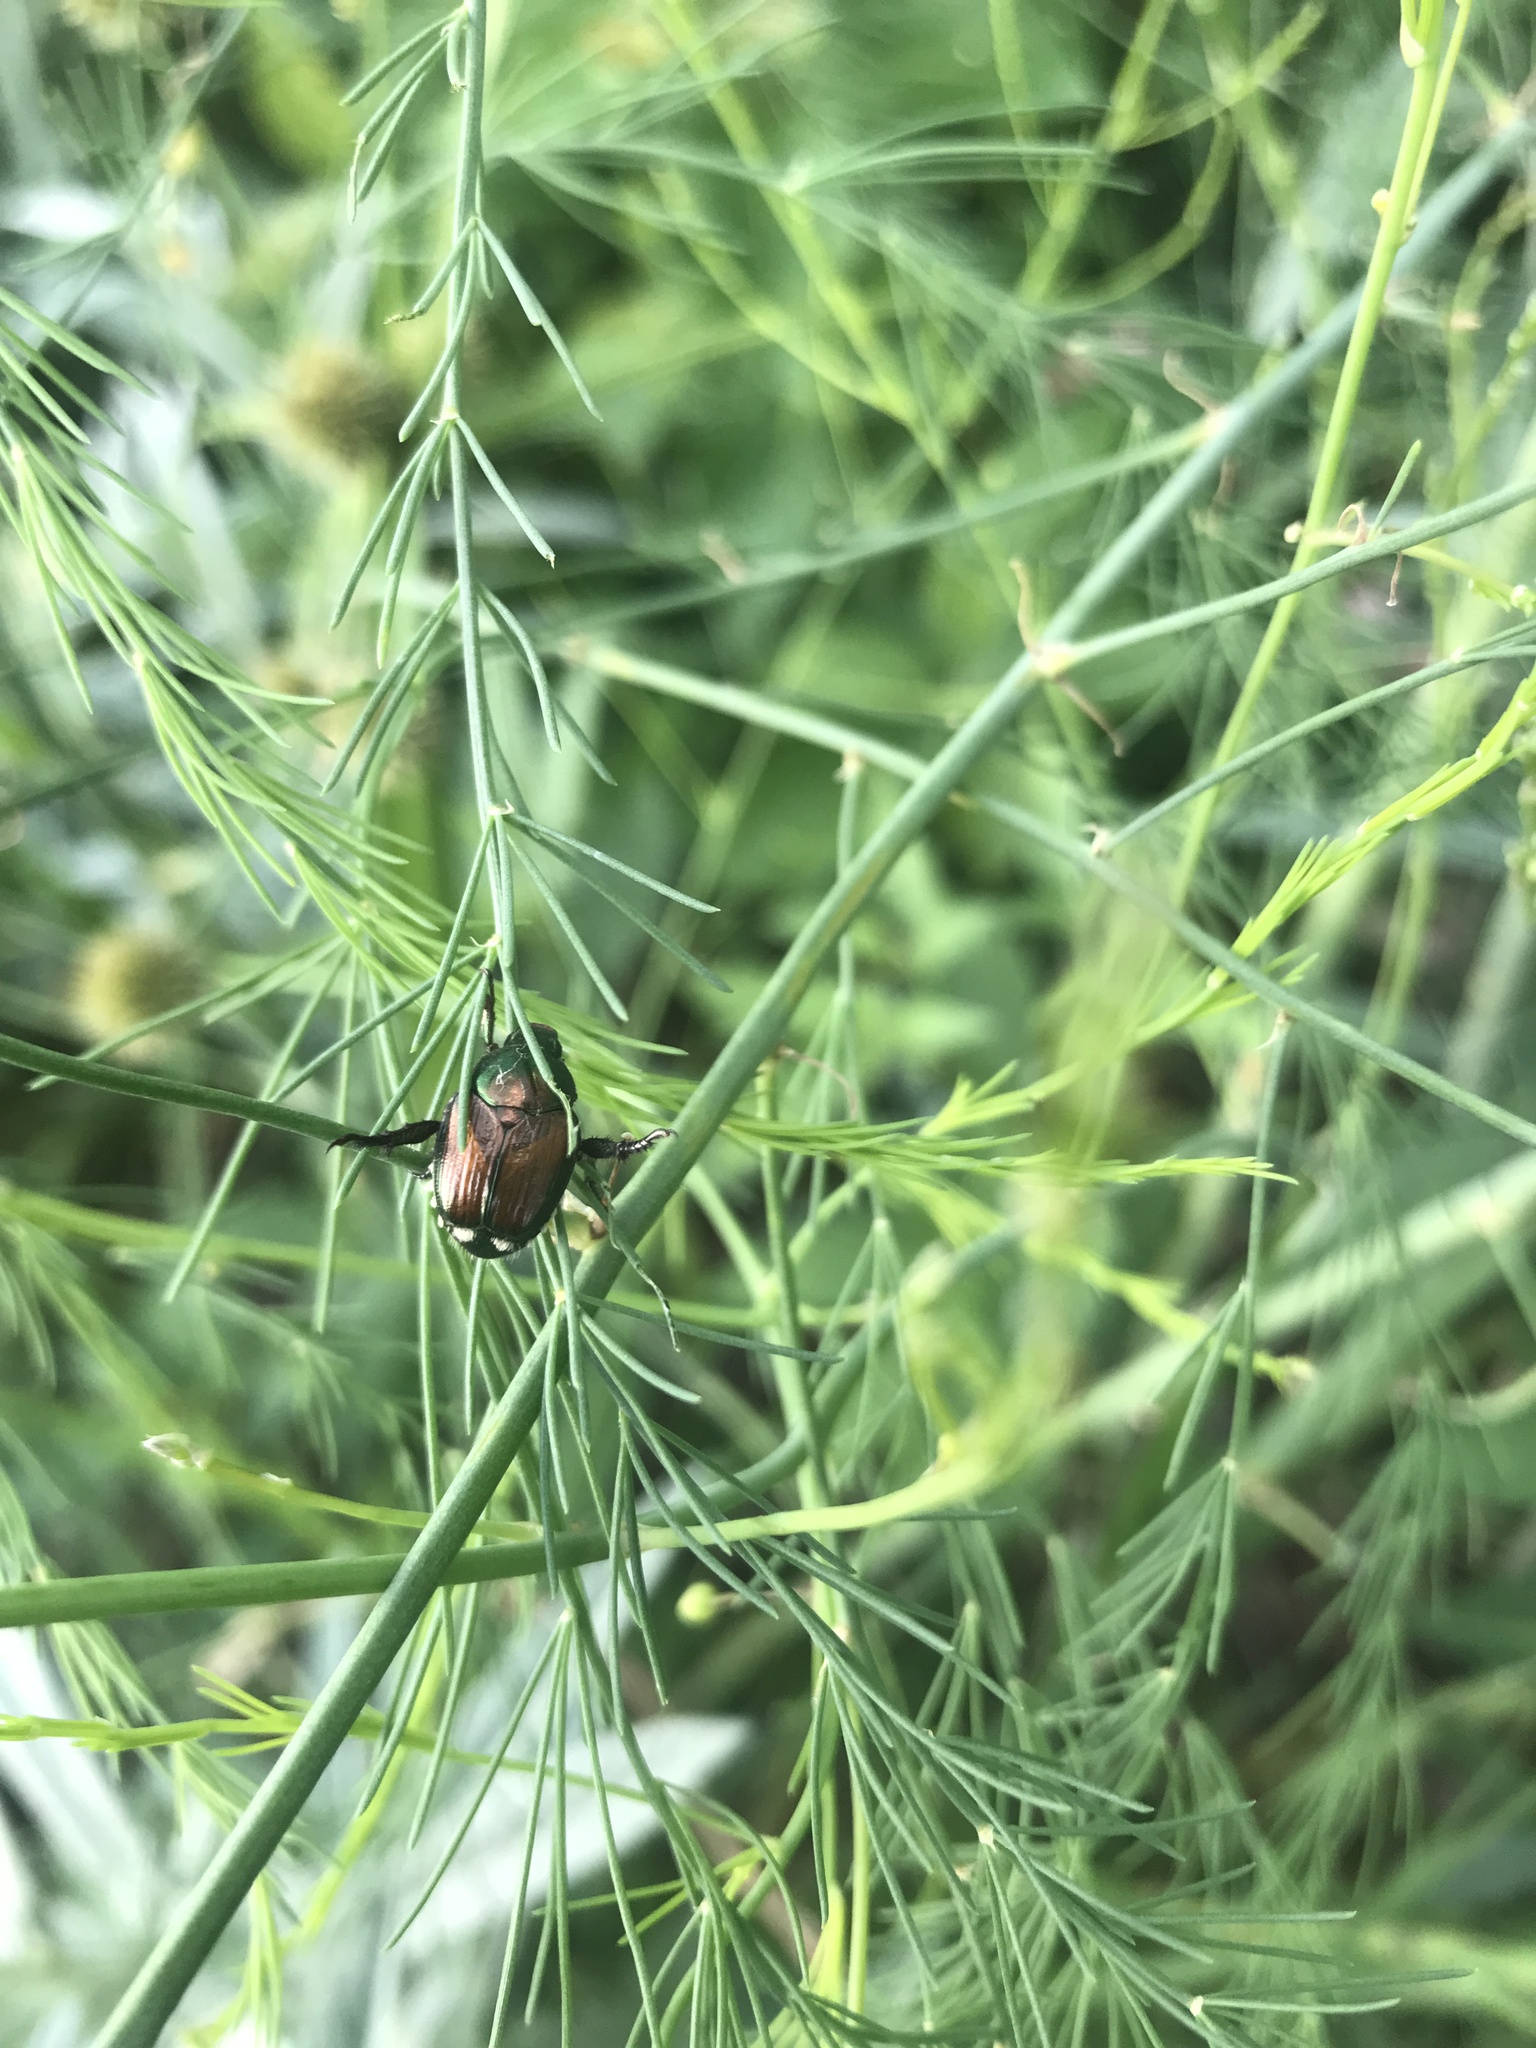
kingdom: Animalia
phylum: Arthropoda
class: Insecta
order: Coleoptera
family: Scarabaeidae
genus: Popillia
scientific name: Popillia japonica
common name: Japanese beetle
